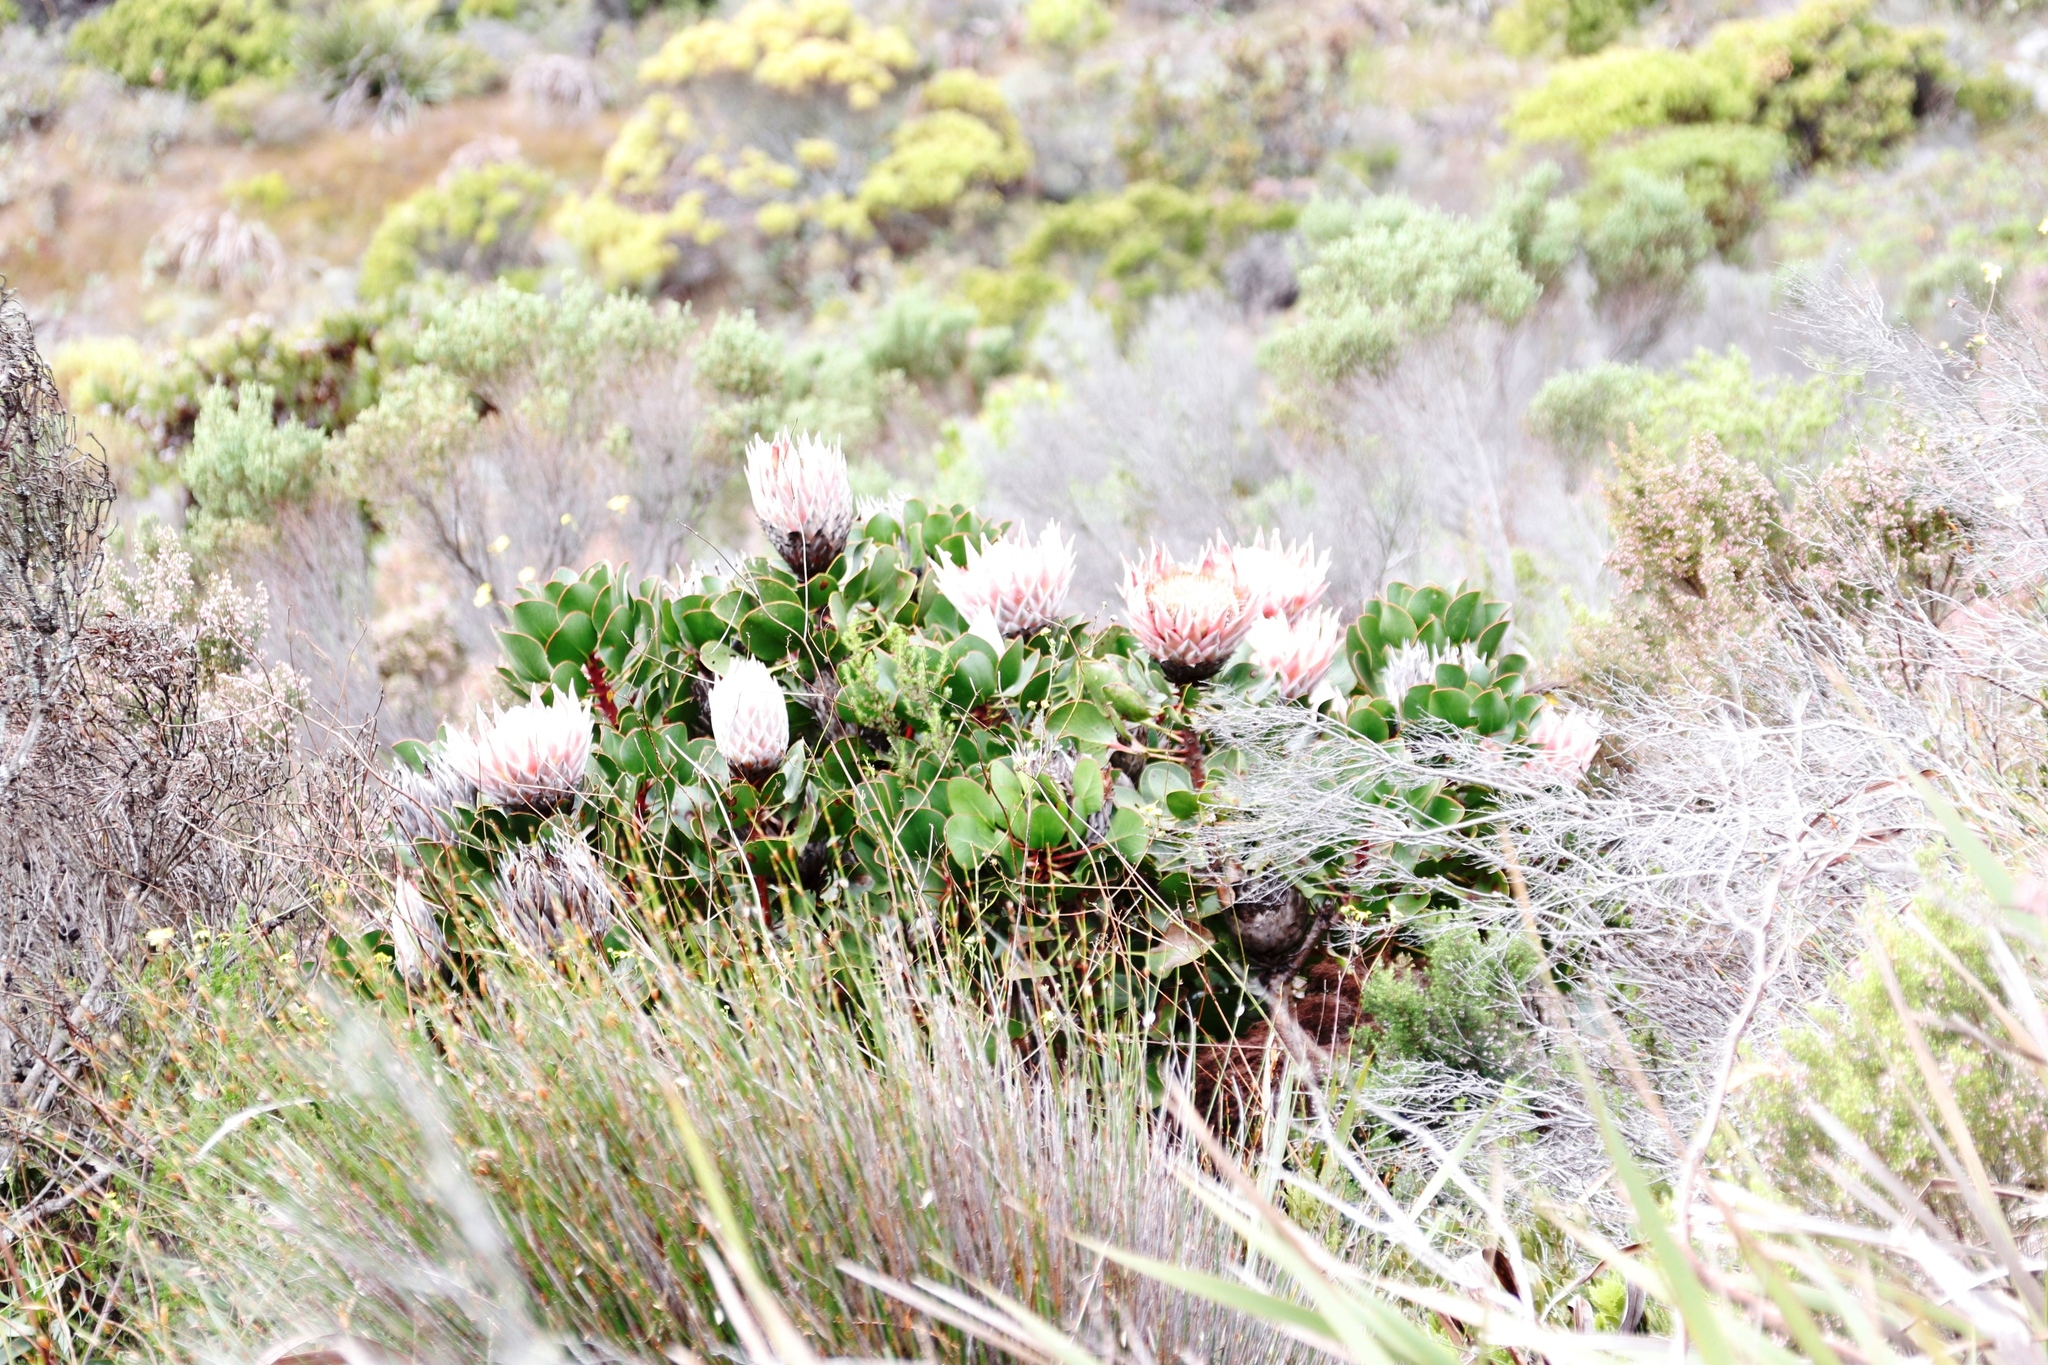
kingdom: Plantae
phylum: Tracheophyta
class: Magnoliopsida
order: Proteales
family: Proteaceae
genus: Protea
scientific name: Protea cynaroides
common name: King protea
